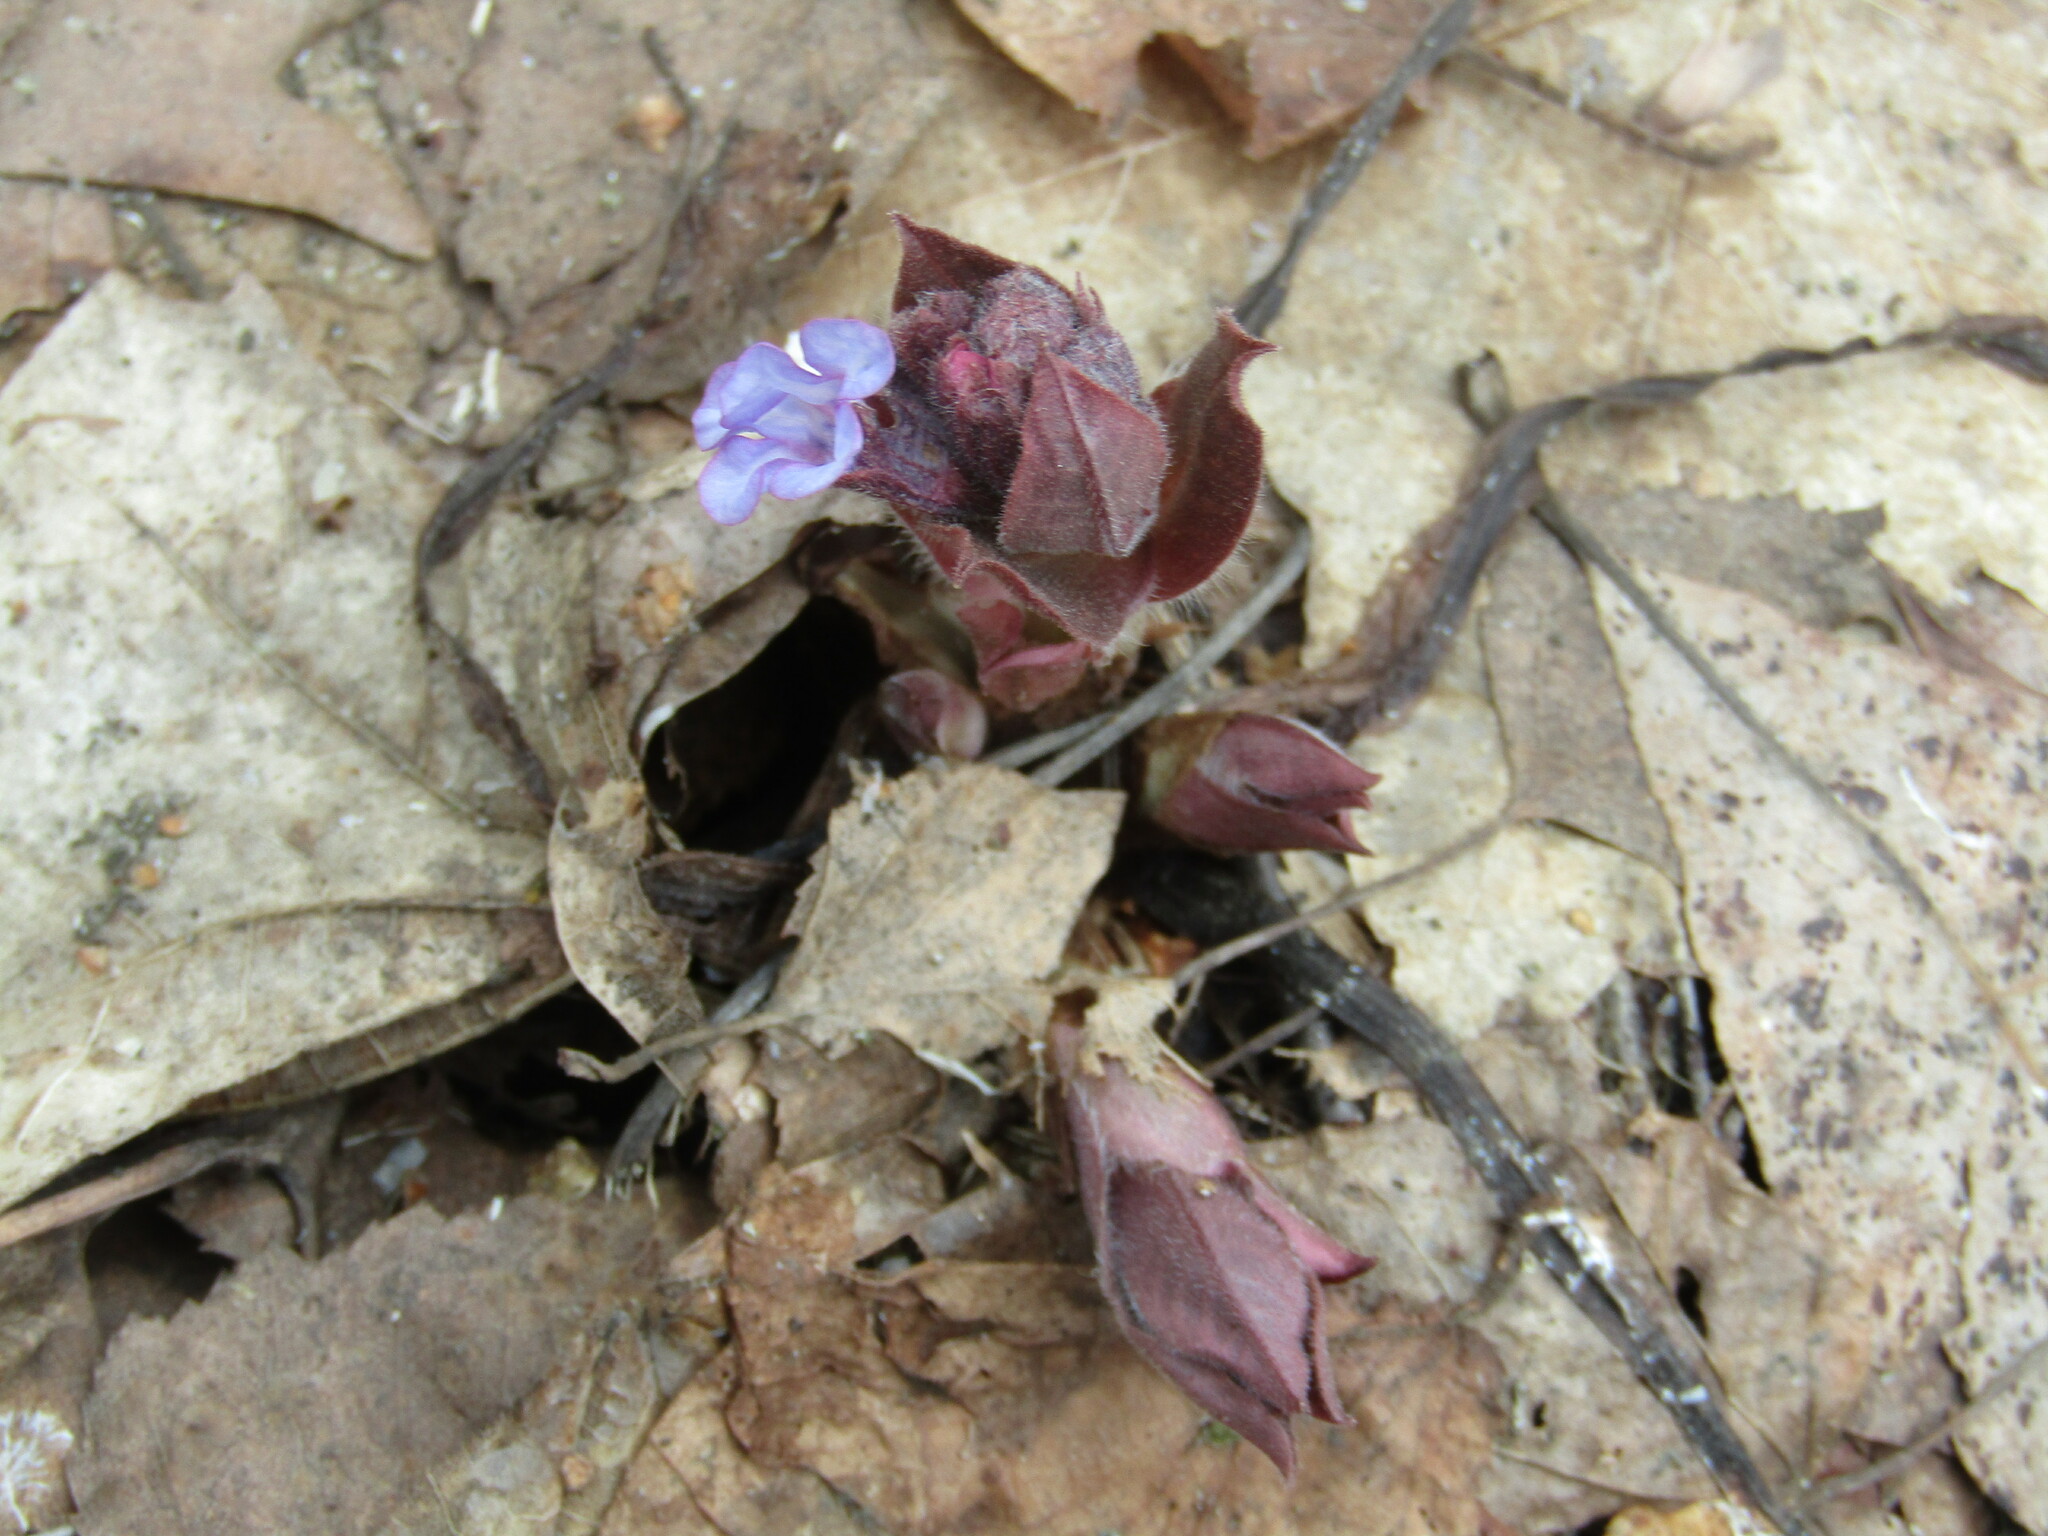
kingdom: Plantae
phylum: Tracheophyta
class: Magnoliopsida
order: Boraginales
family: Boraginaceae
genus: Pulmonaria
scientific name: Pulmonaria obscura
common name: Suffolk lungwort
